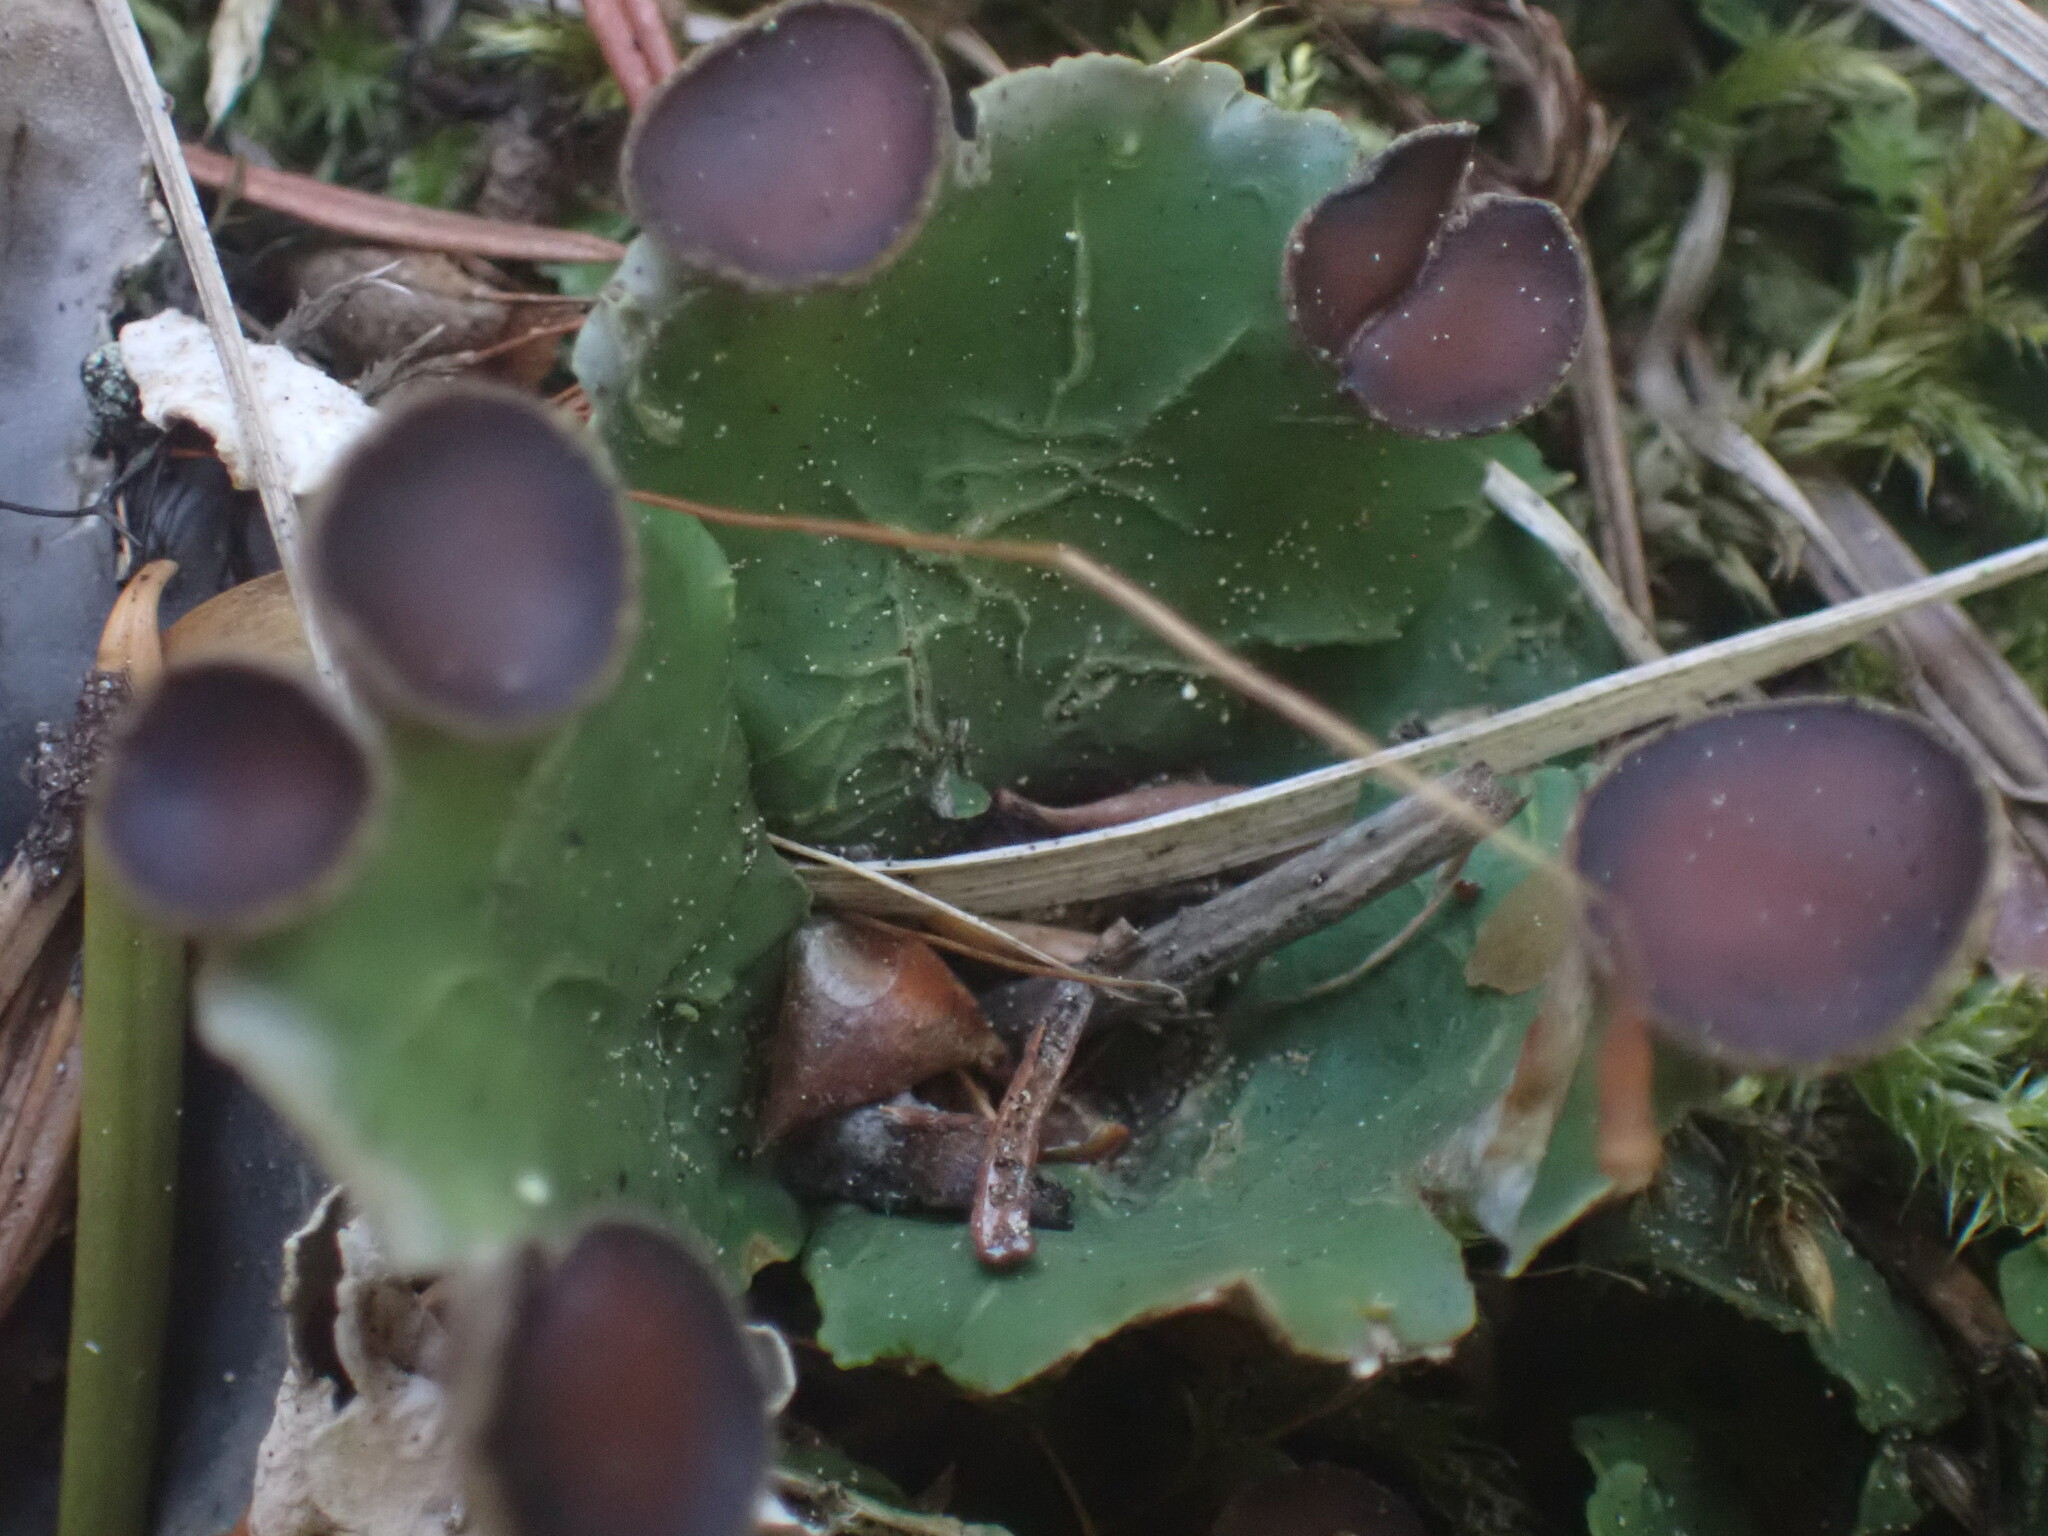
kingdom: Fungi
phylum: Ascomycota
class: Lecanoromycetes
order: Peltigerales
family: Peltigeraceae
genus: Peltigera
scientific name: Peltigera venosa
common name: Pixie gowns lichen
